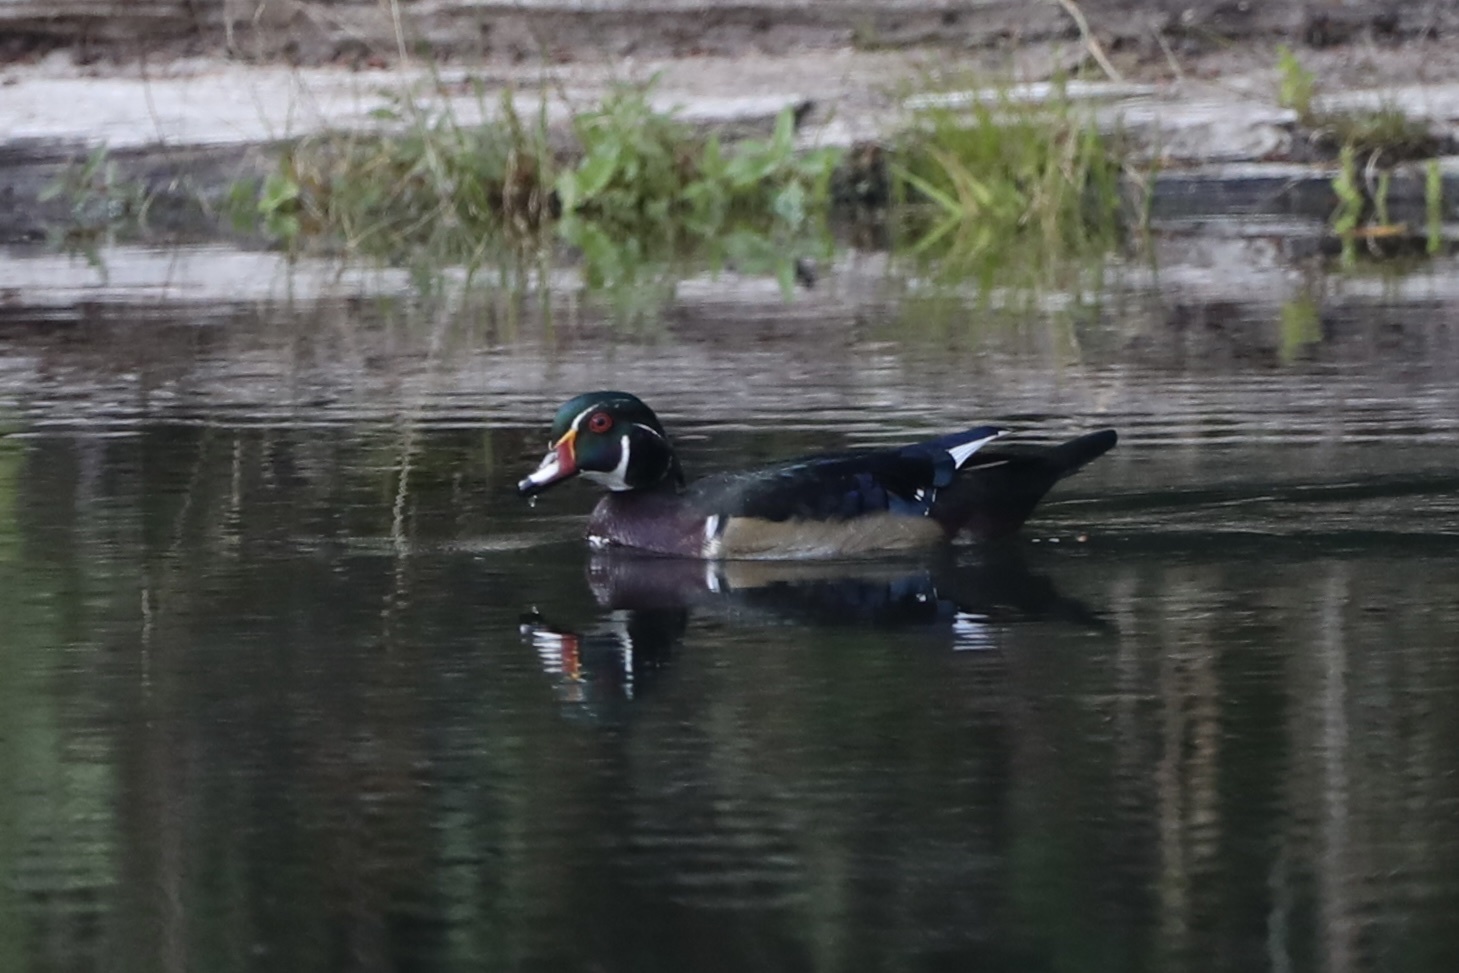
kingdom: Animalia
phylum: Chordata
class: Aves
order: Anseriformes
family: Anatidae
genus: Aix
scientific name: Aix sponsa
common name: Wood duck
